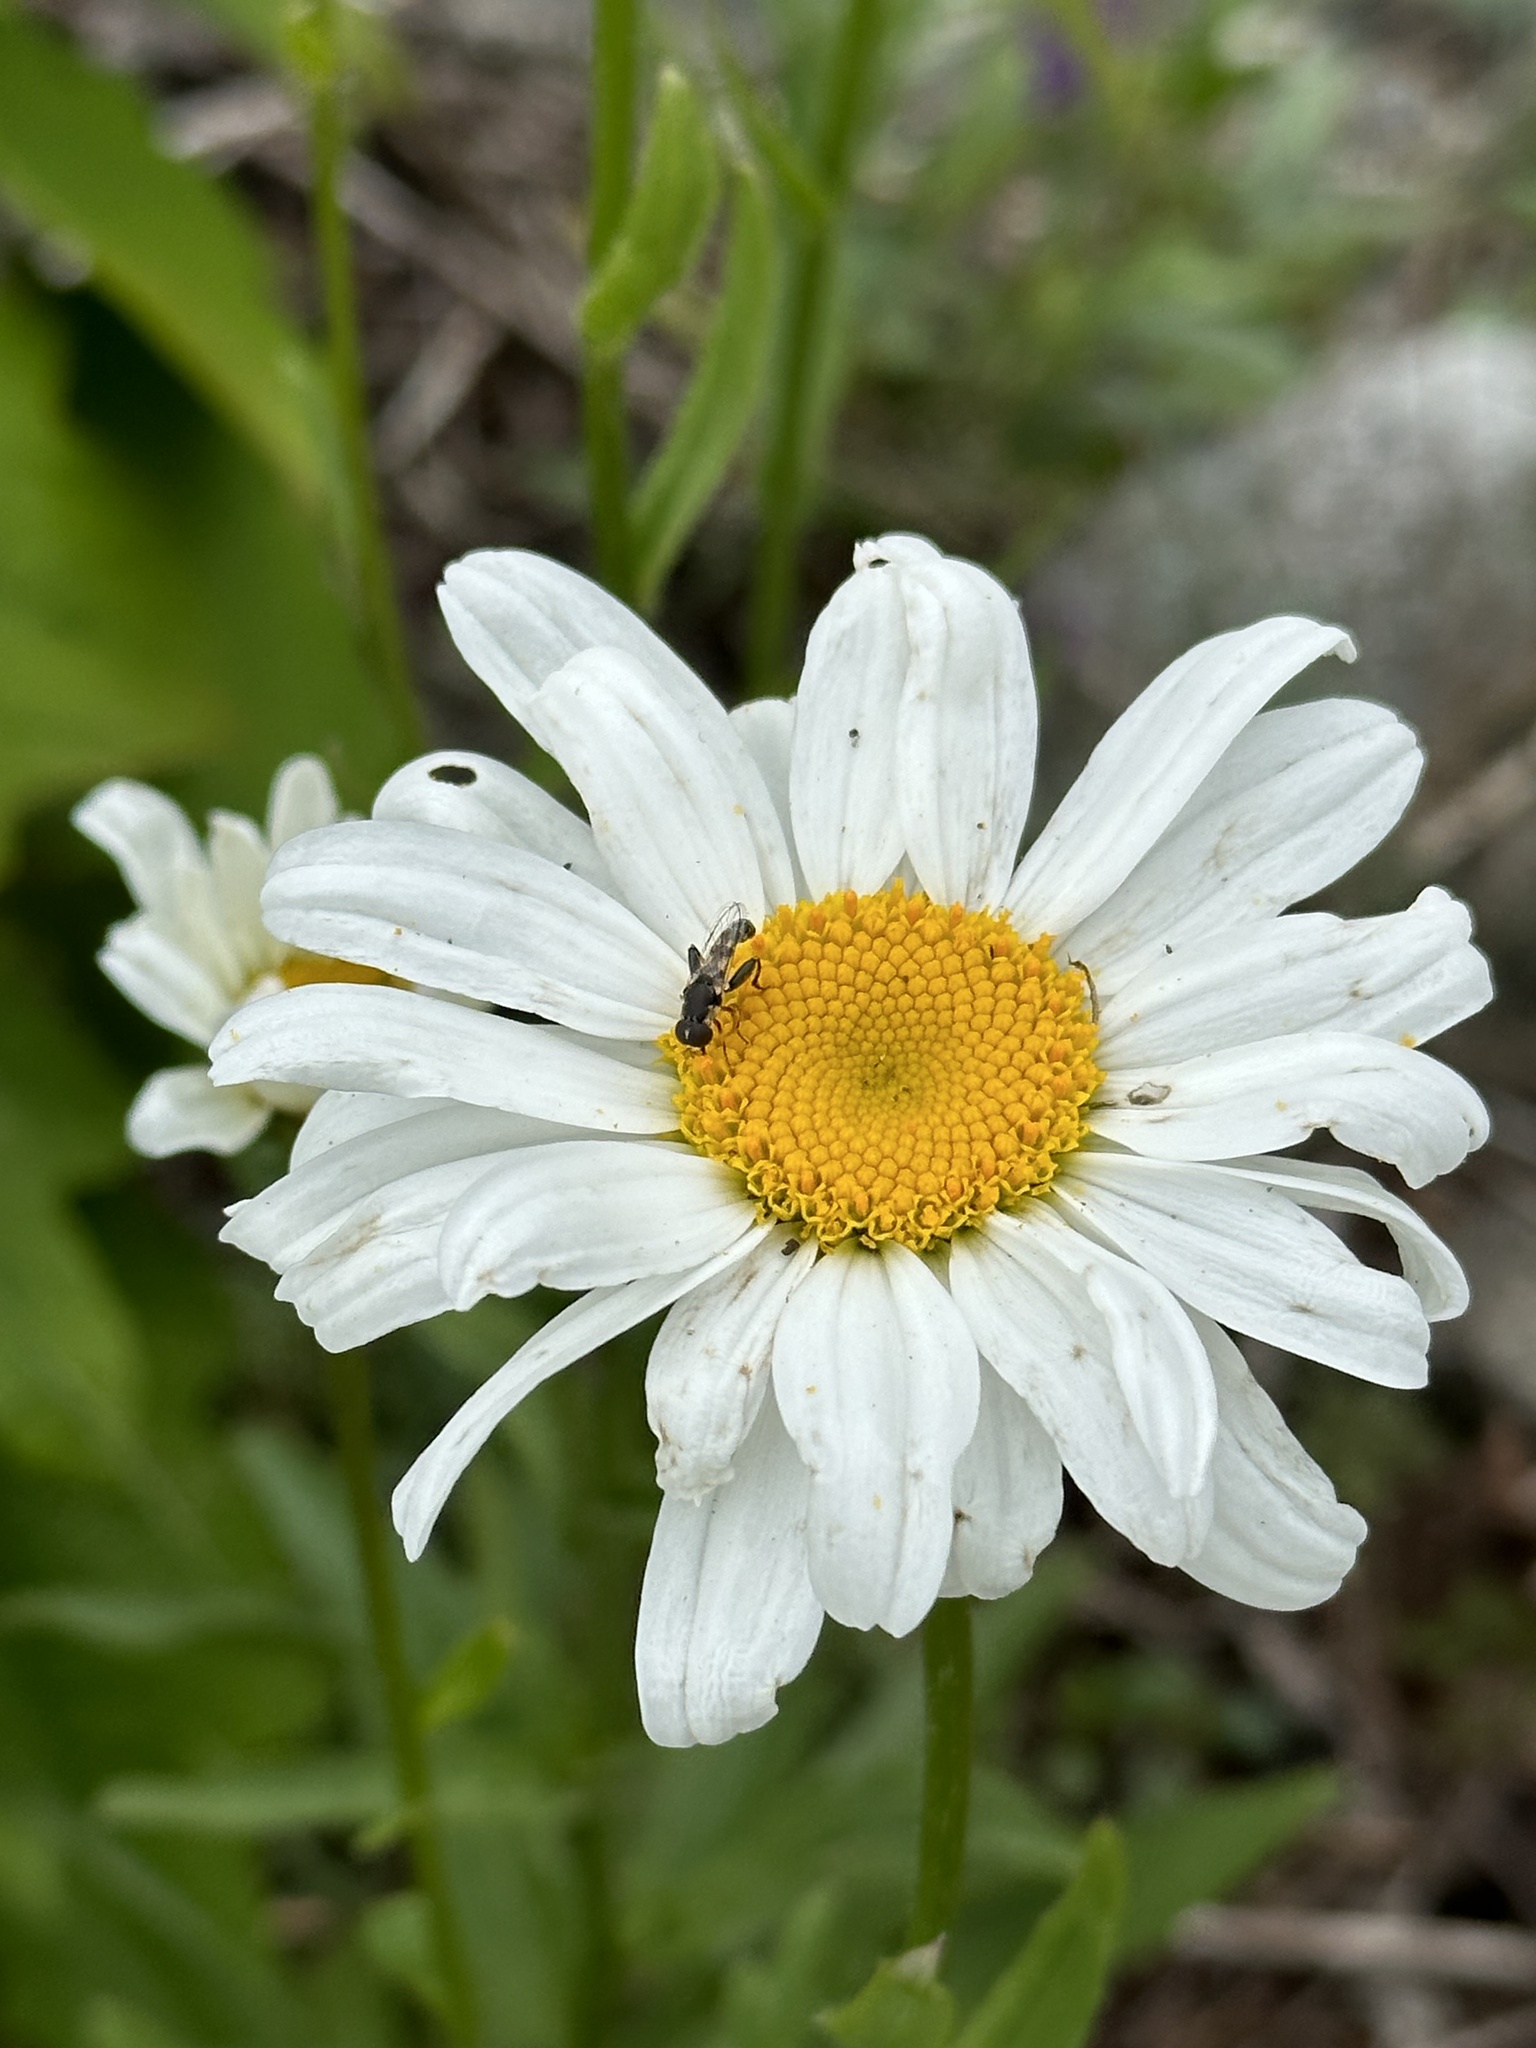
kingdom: Animalia
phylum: Arthropoda
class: Insecta
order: Diptera
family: Syrphidae
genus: Syritta
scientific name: Syritta pipiens
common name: Hover fly
